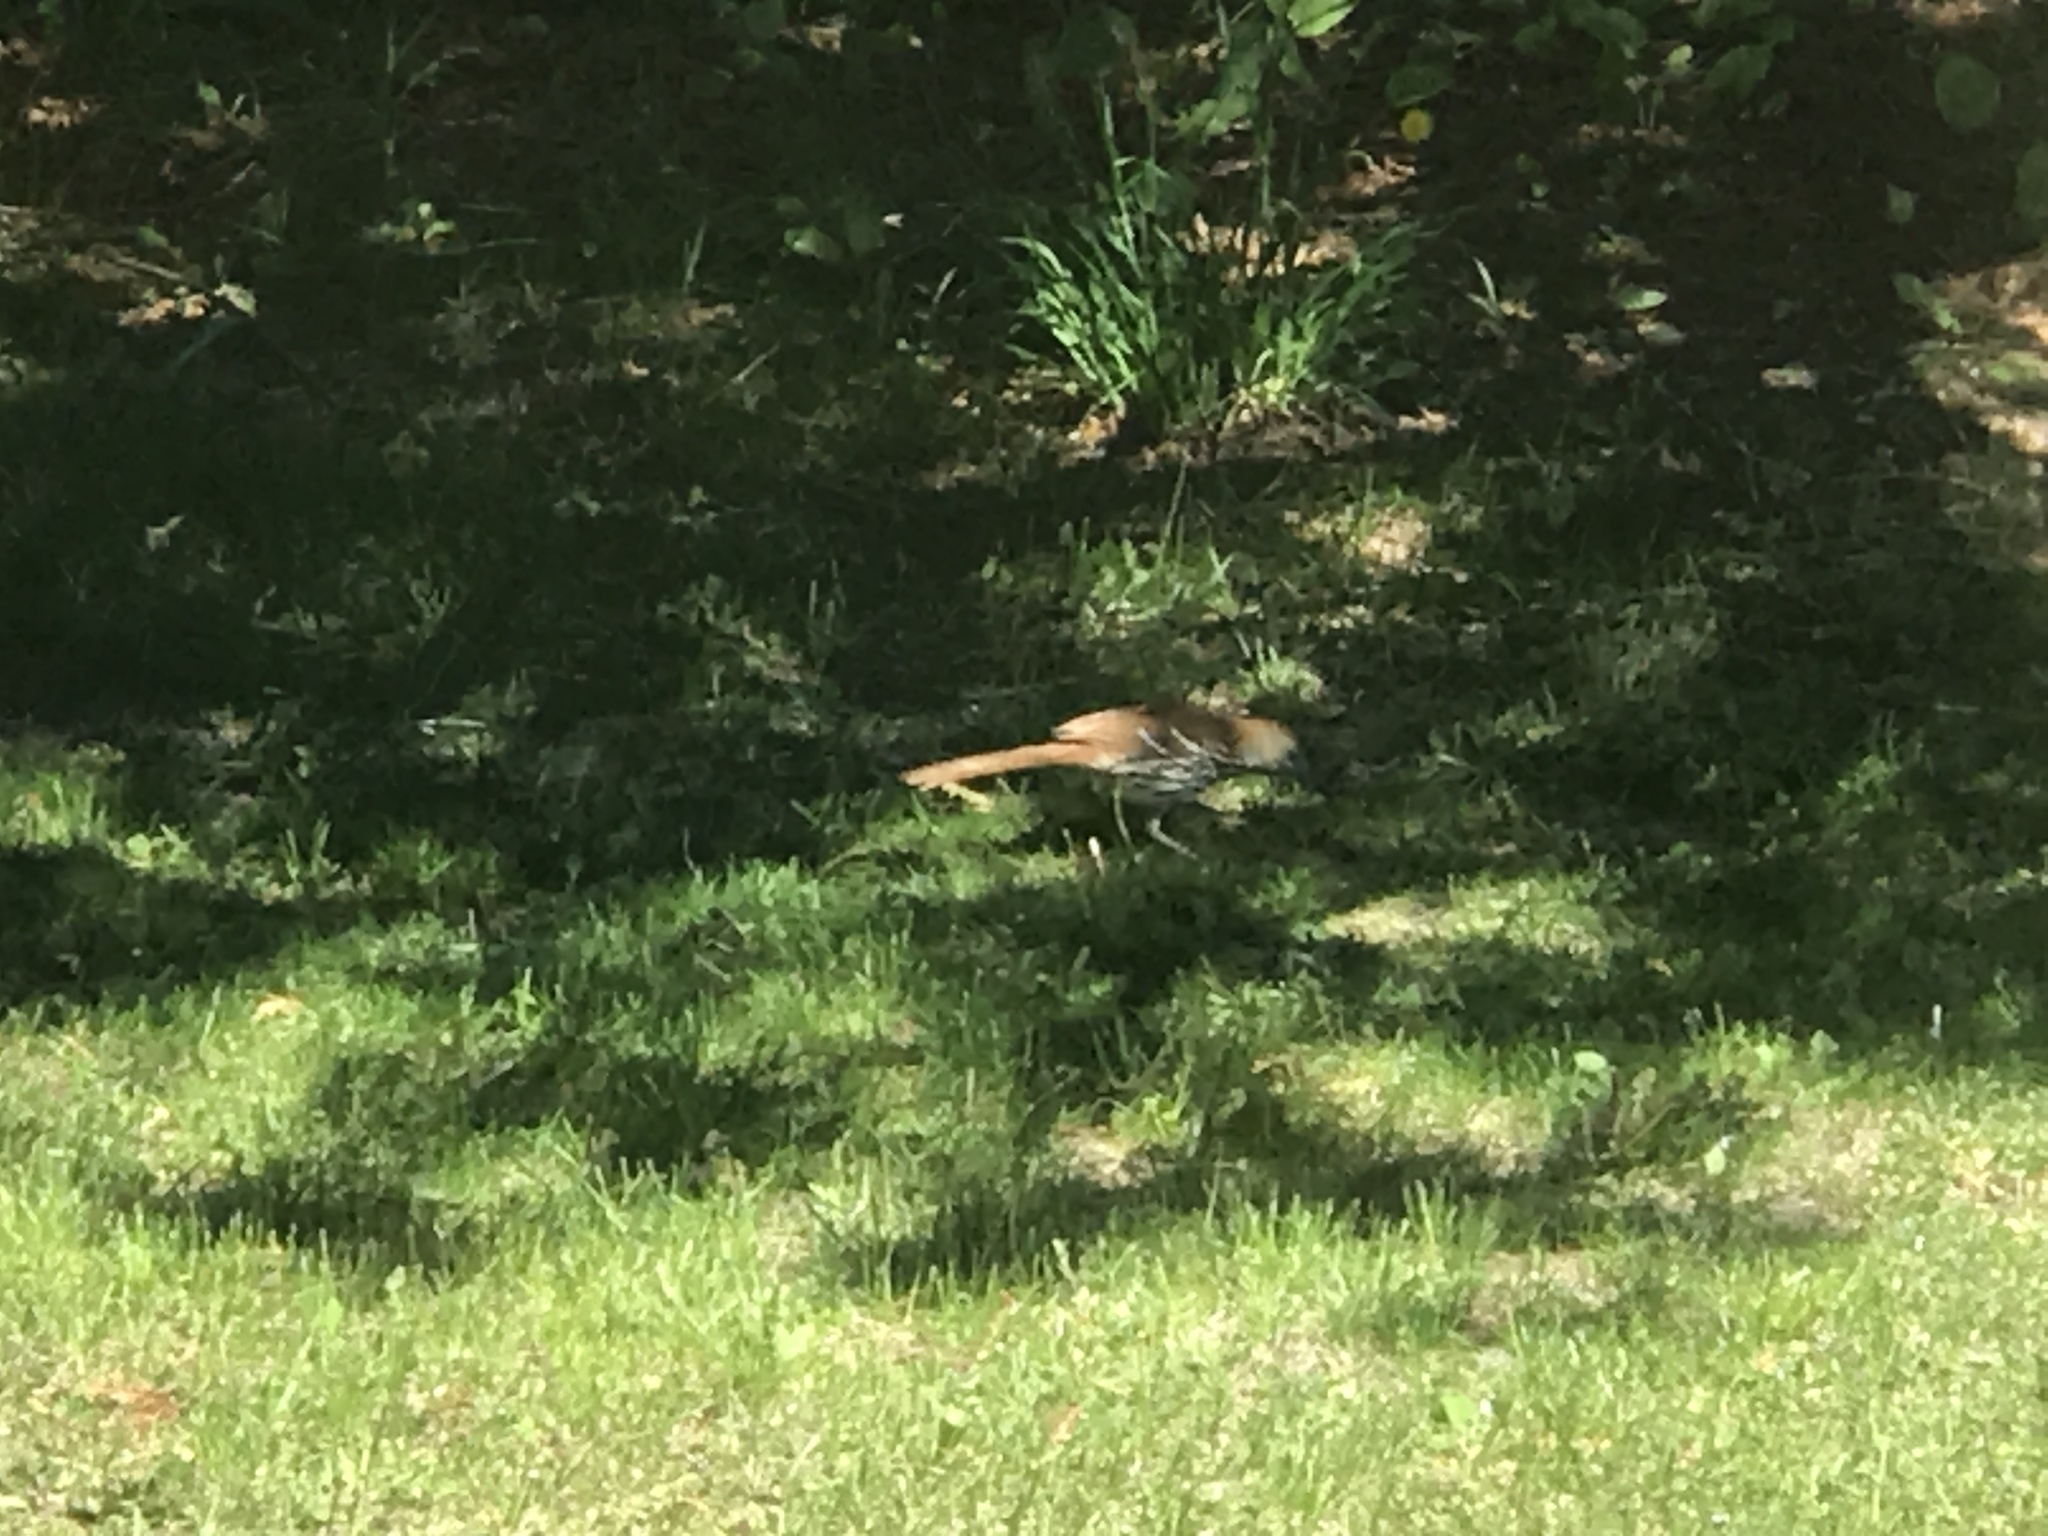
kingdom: Animalia
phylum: Chordata
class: Aves
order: Passeriformes
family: Mimidae
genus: Toxostoma
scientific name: Toxostoma rufum
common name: Brown thrasher
